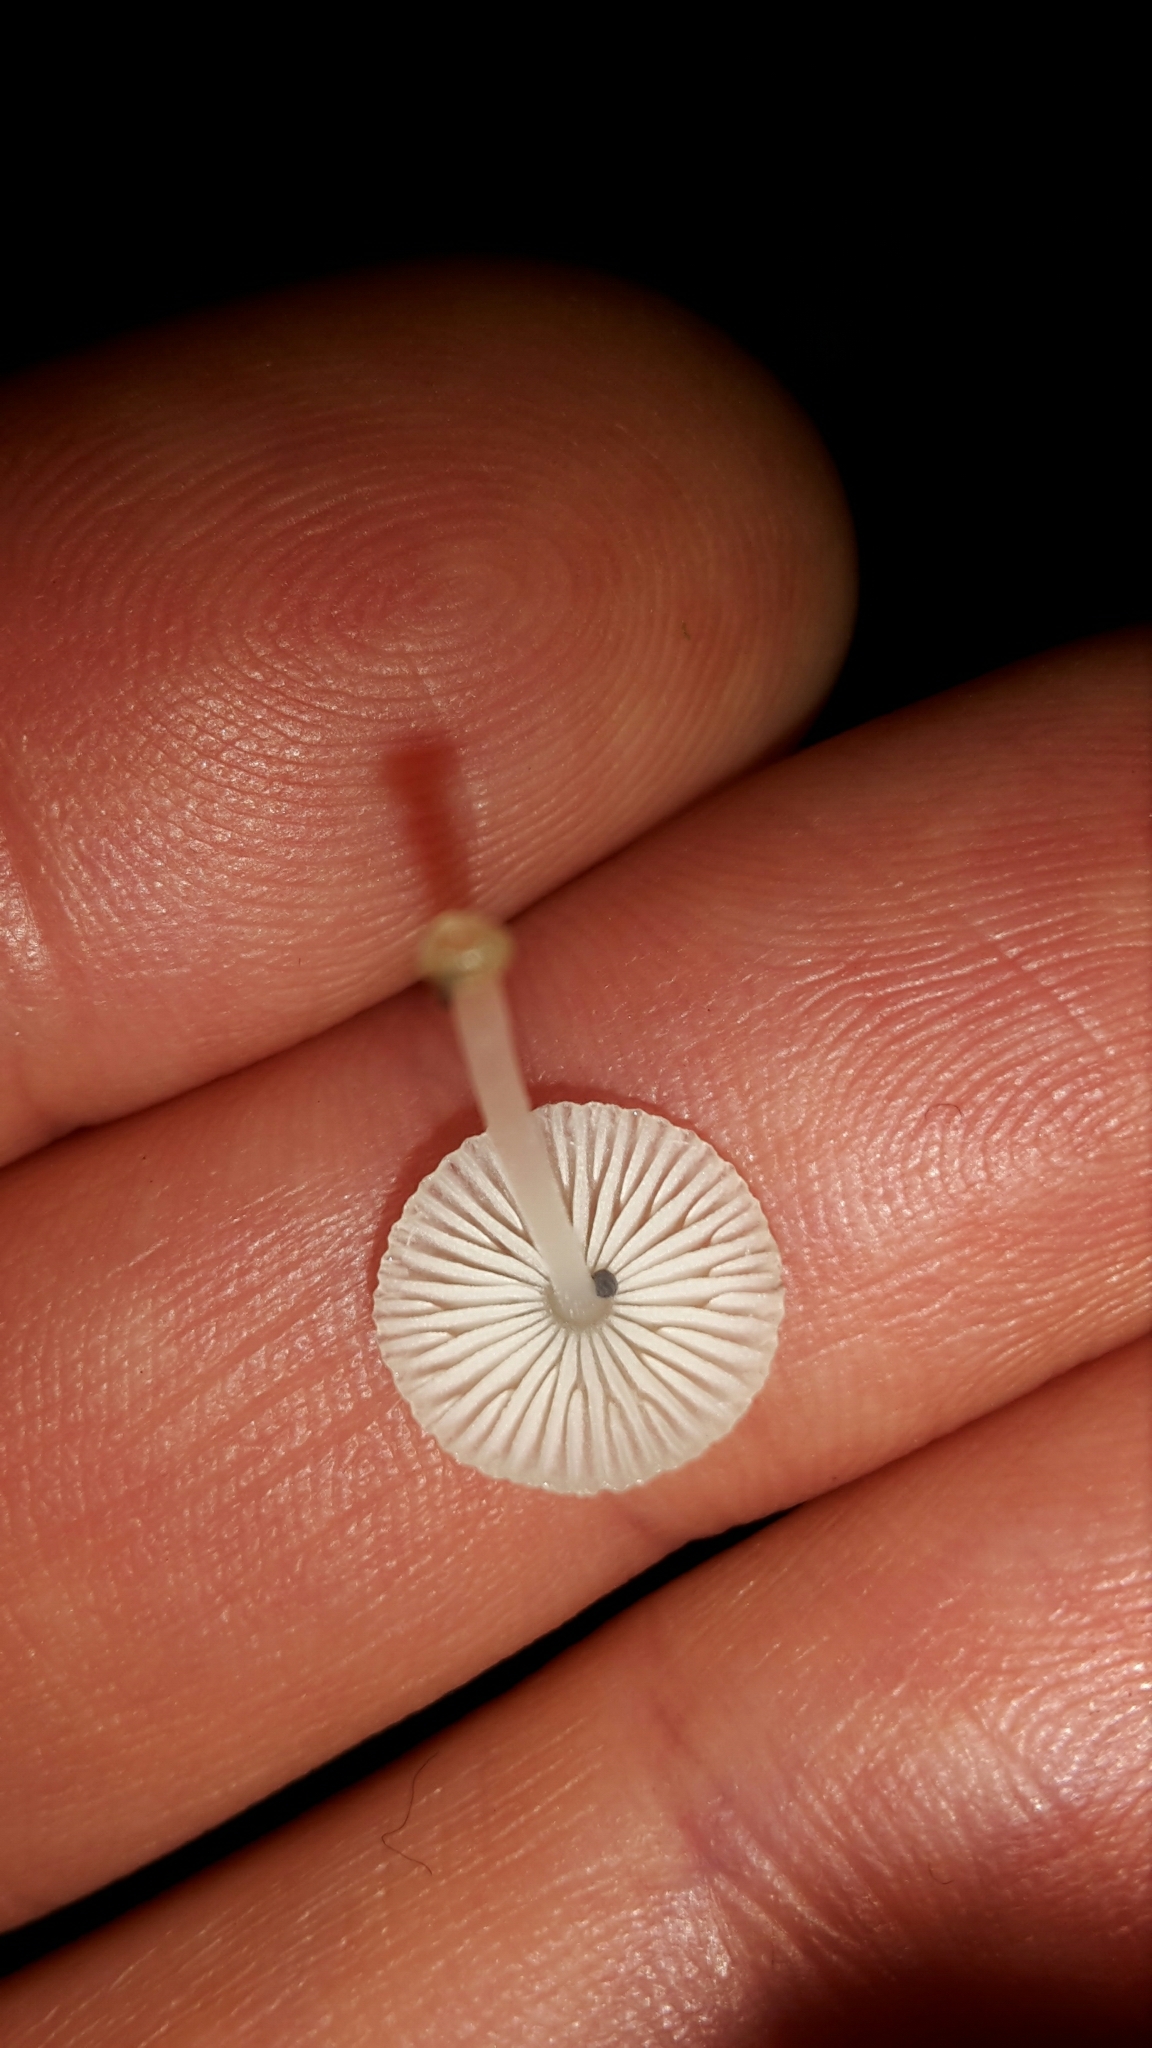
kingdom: Fungi
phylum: Basidiomycota
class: Agaricomycetes
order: Agaricales
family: Mycenaceae
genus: Mycena
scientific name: Mycena interrupta
